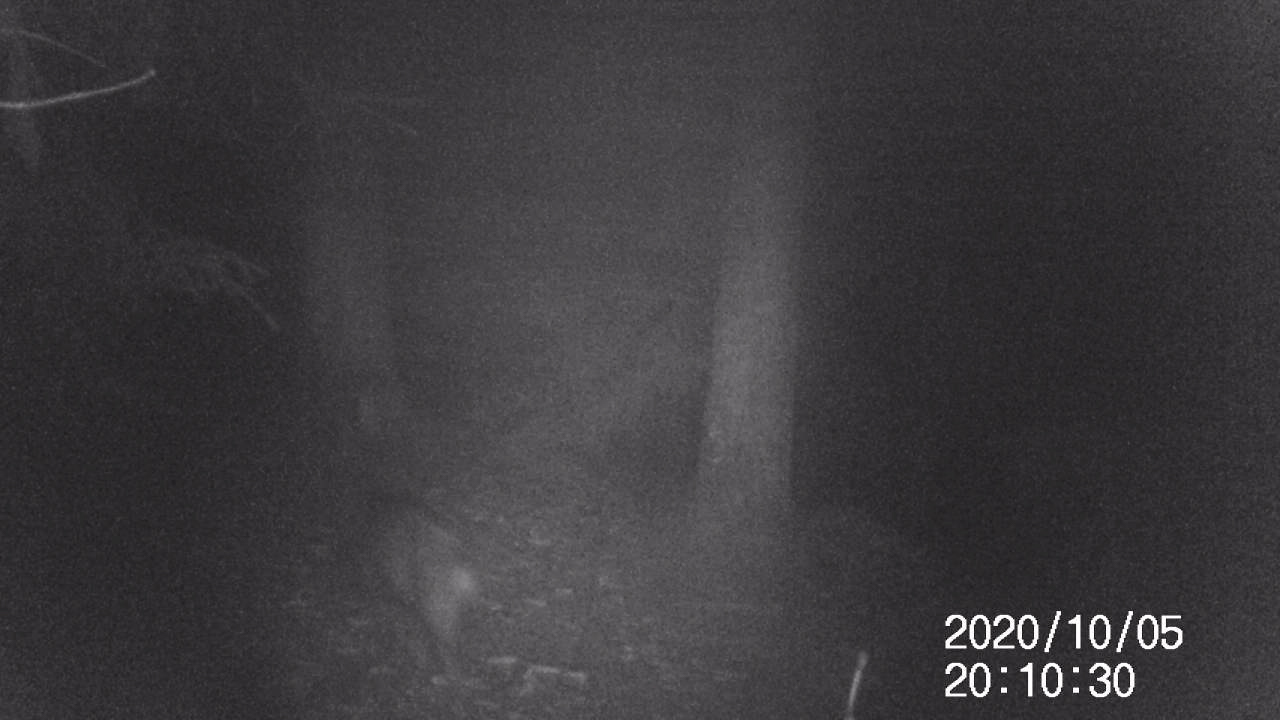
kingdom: Animalia
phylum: Chordata
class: Mammalia
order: Artiodactyla
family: Suidae
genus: Sus
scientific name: Sus scrofa
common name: Wild boar
